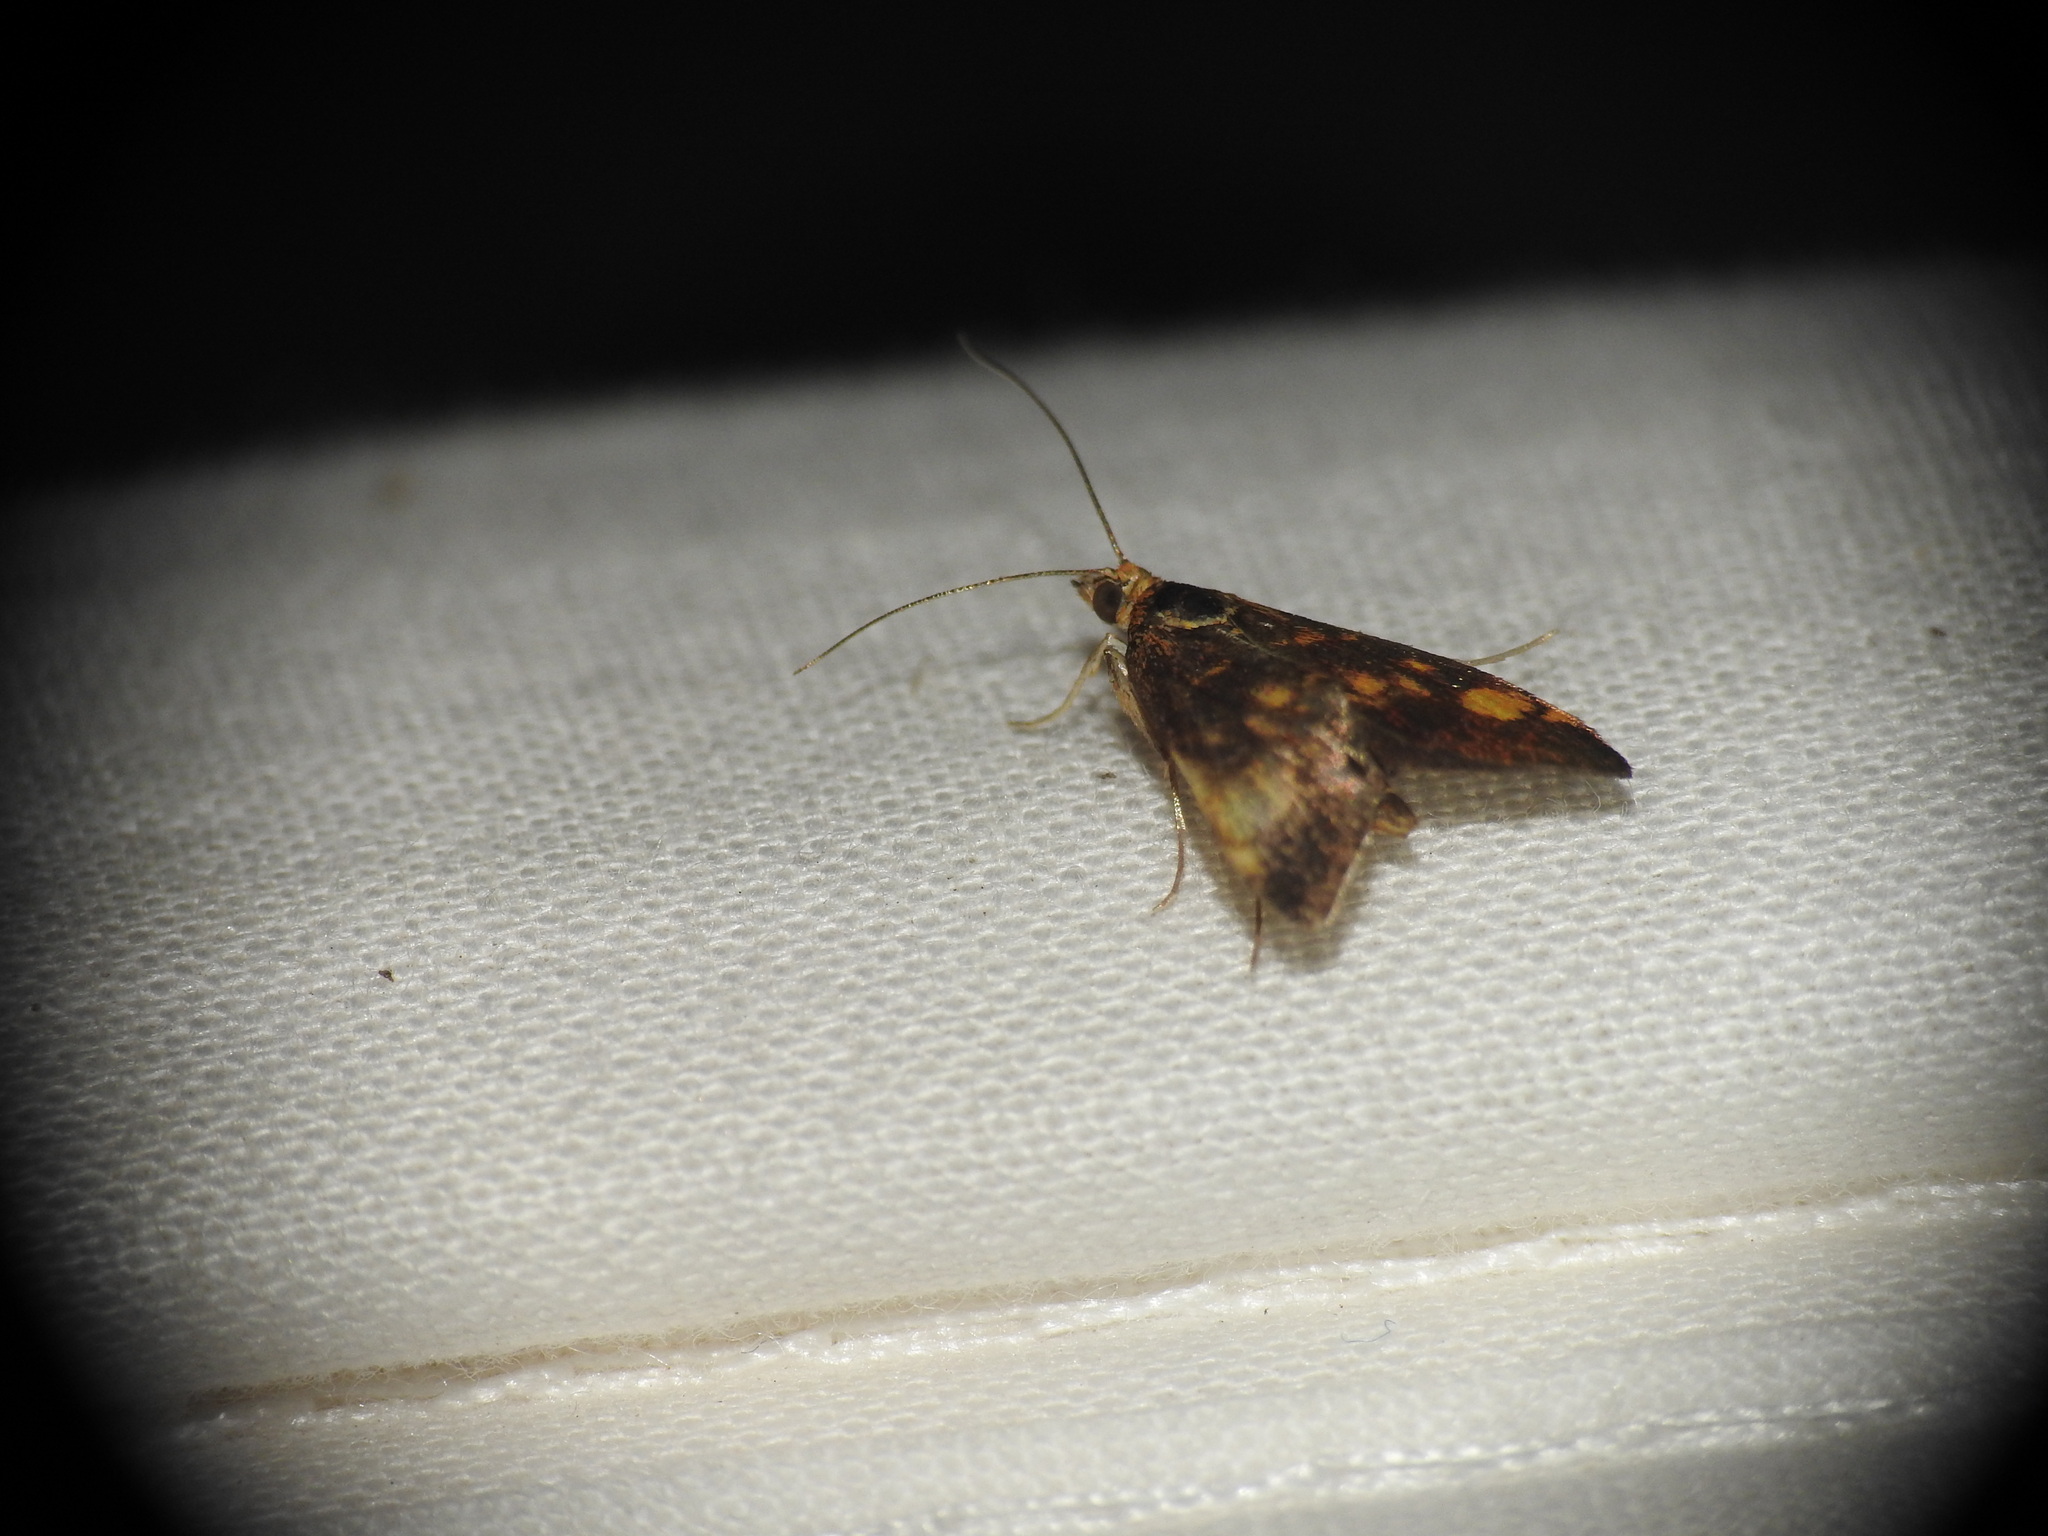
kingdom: Animalia
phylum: Arthropoda
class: Insecta
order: Lepidoptera
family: Crambidae
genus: Pyrausta
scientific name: Pyrausta aurata
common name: Small purple & gold
